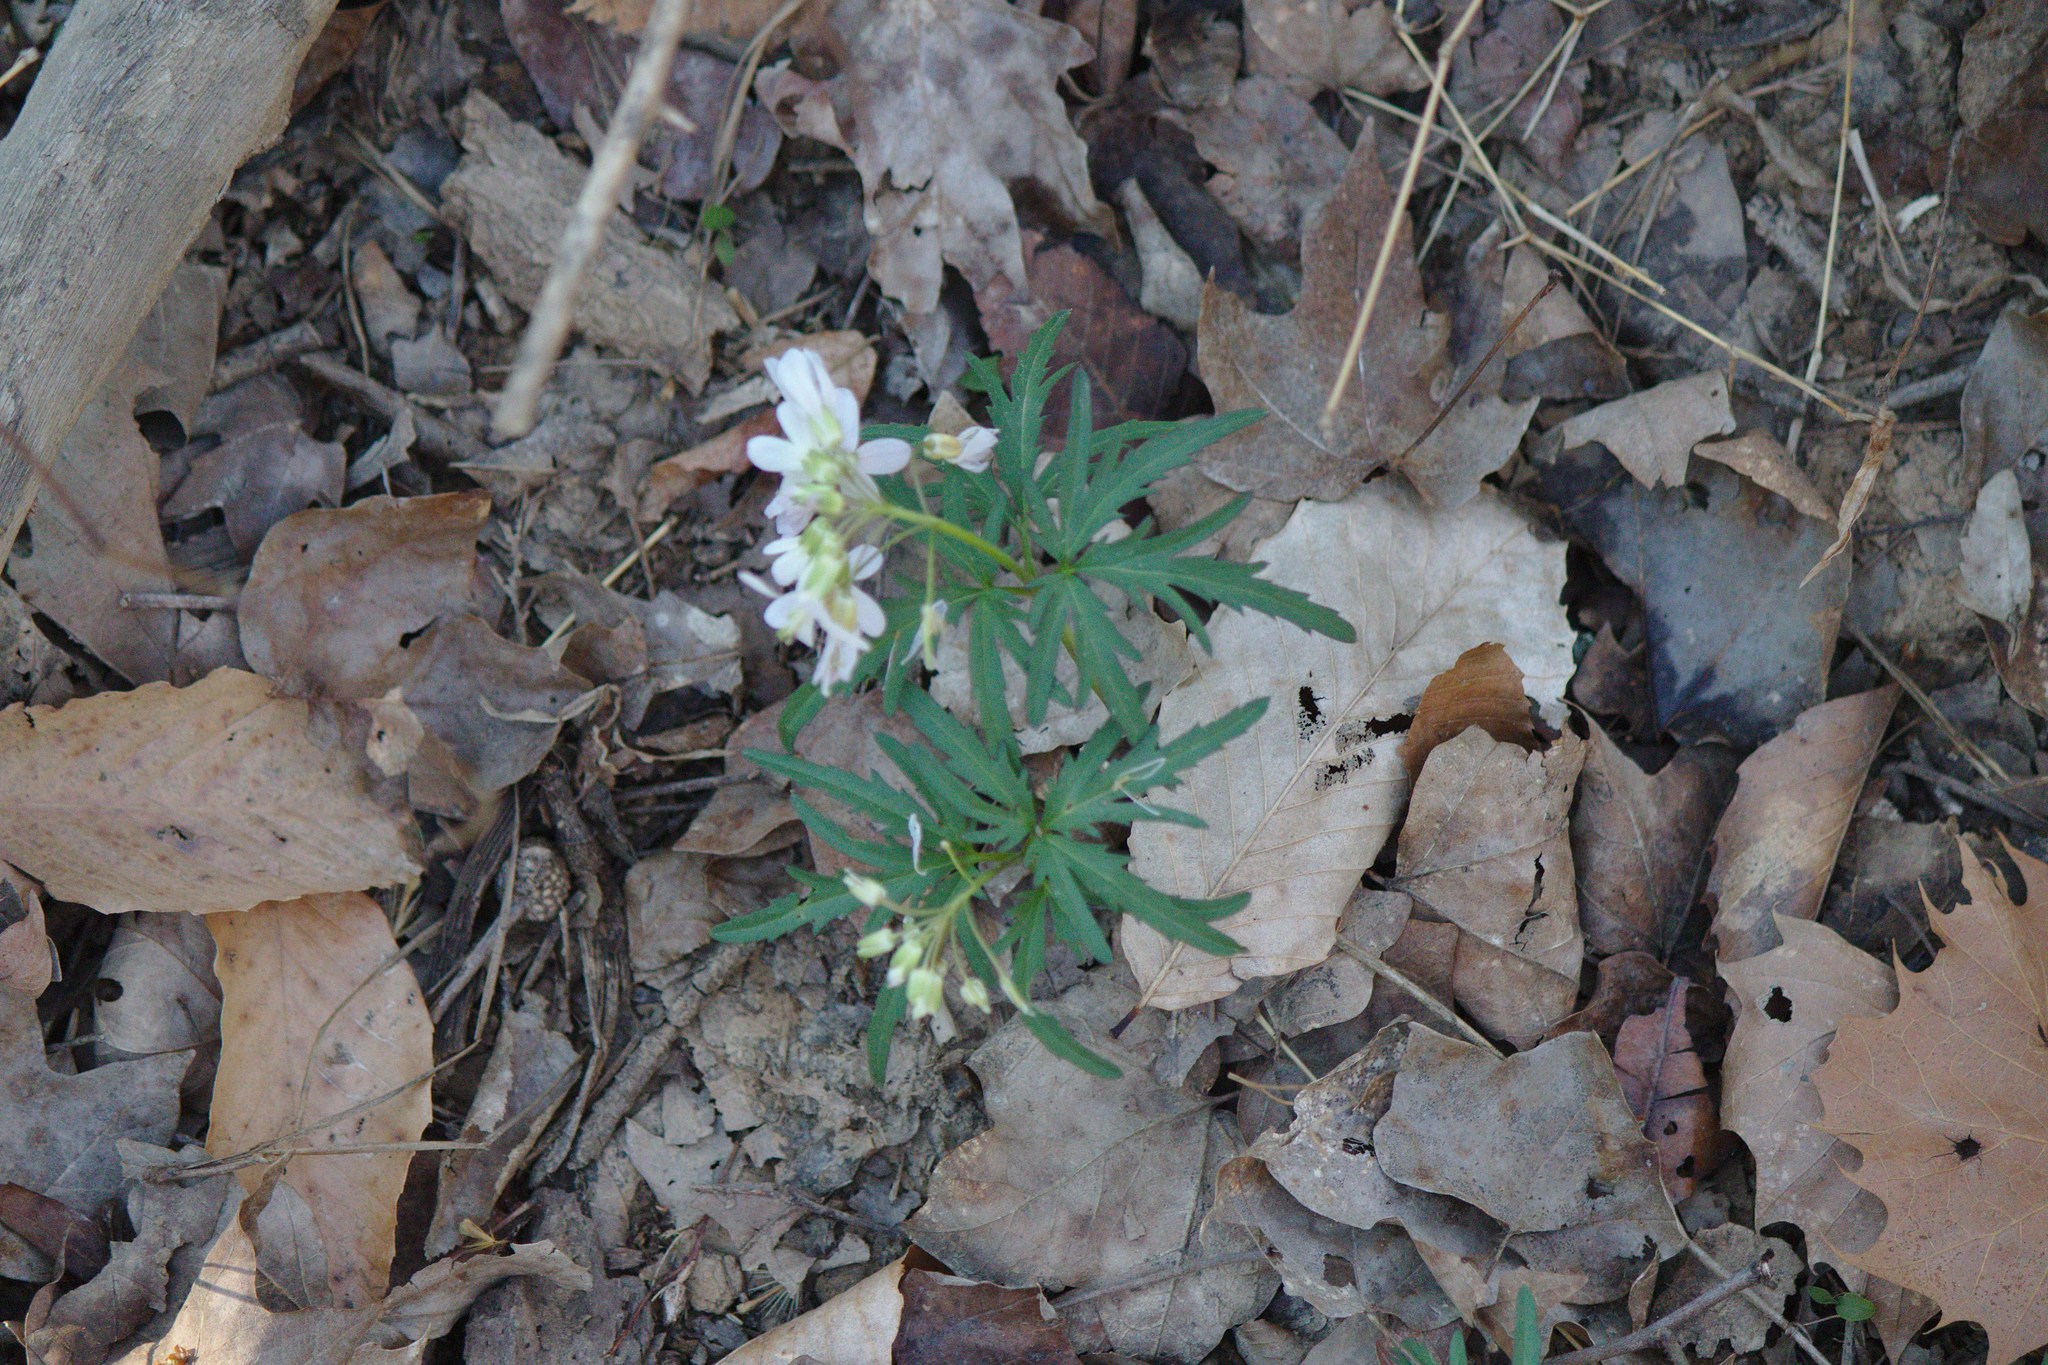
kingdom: Plantae
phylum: Tracheophyta
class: Magnoliopsida
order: Brassicales
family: Brassicaceae
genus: Cardamine
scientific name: Cardamine concatenata
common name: Cut-leaf toothcup
